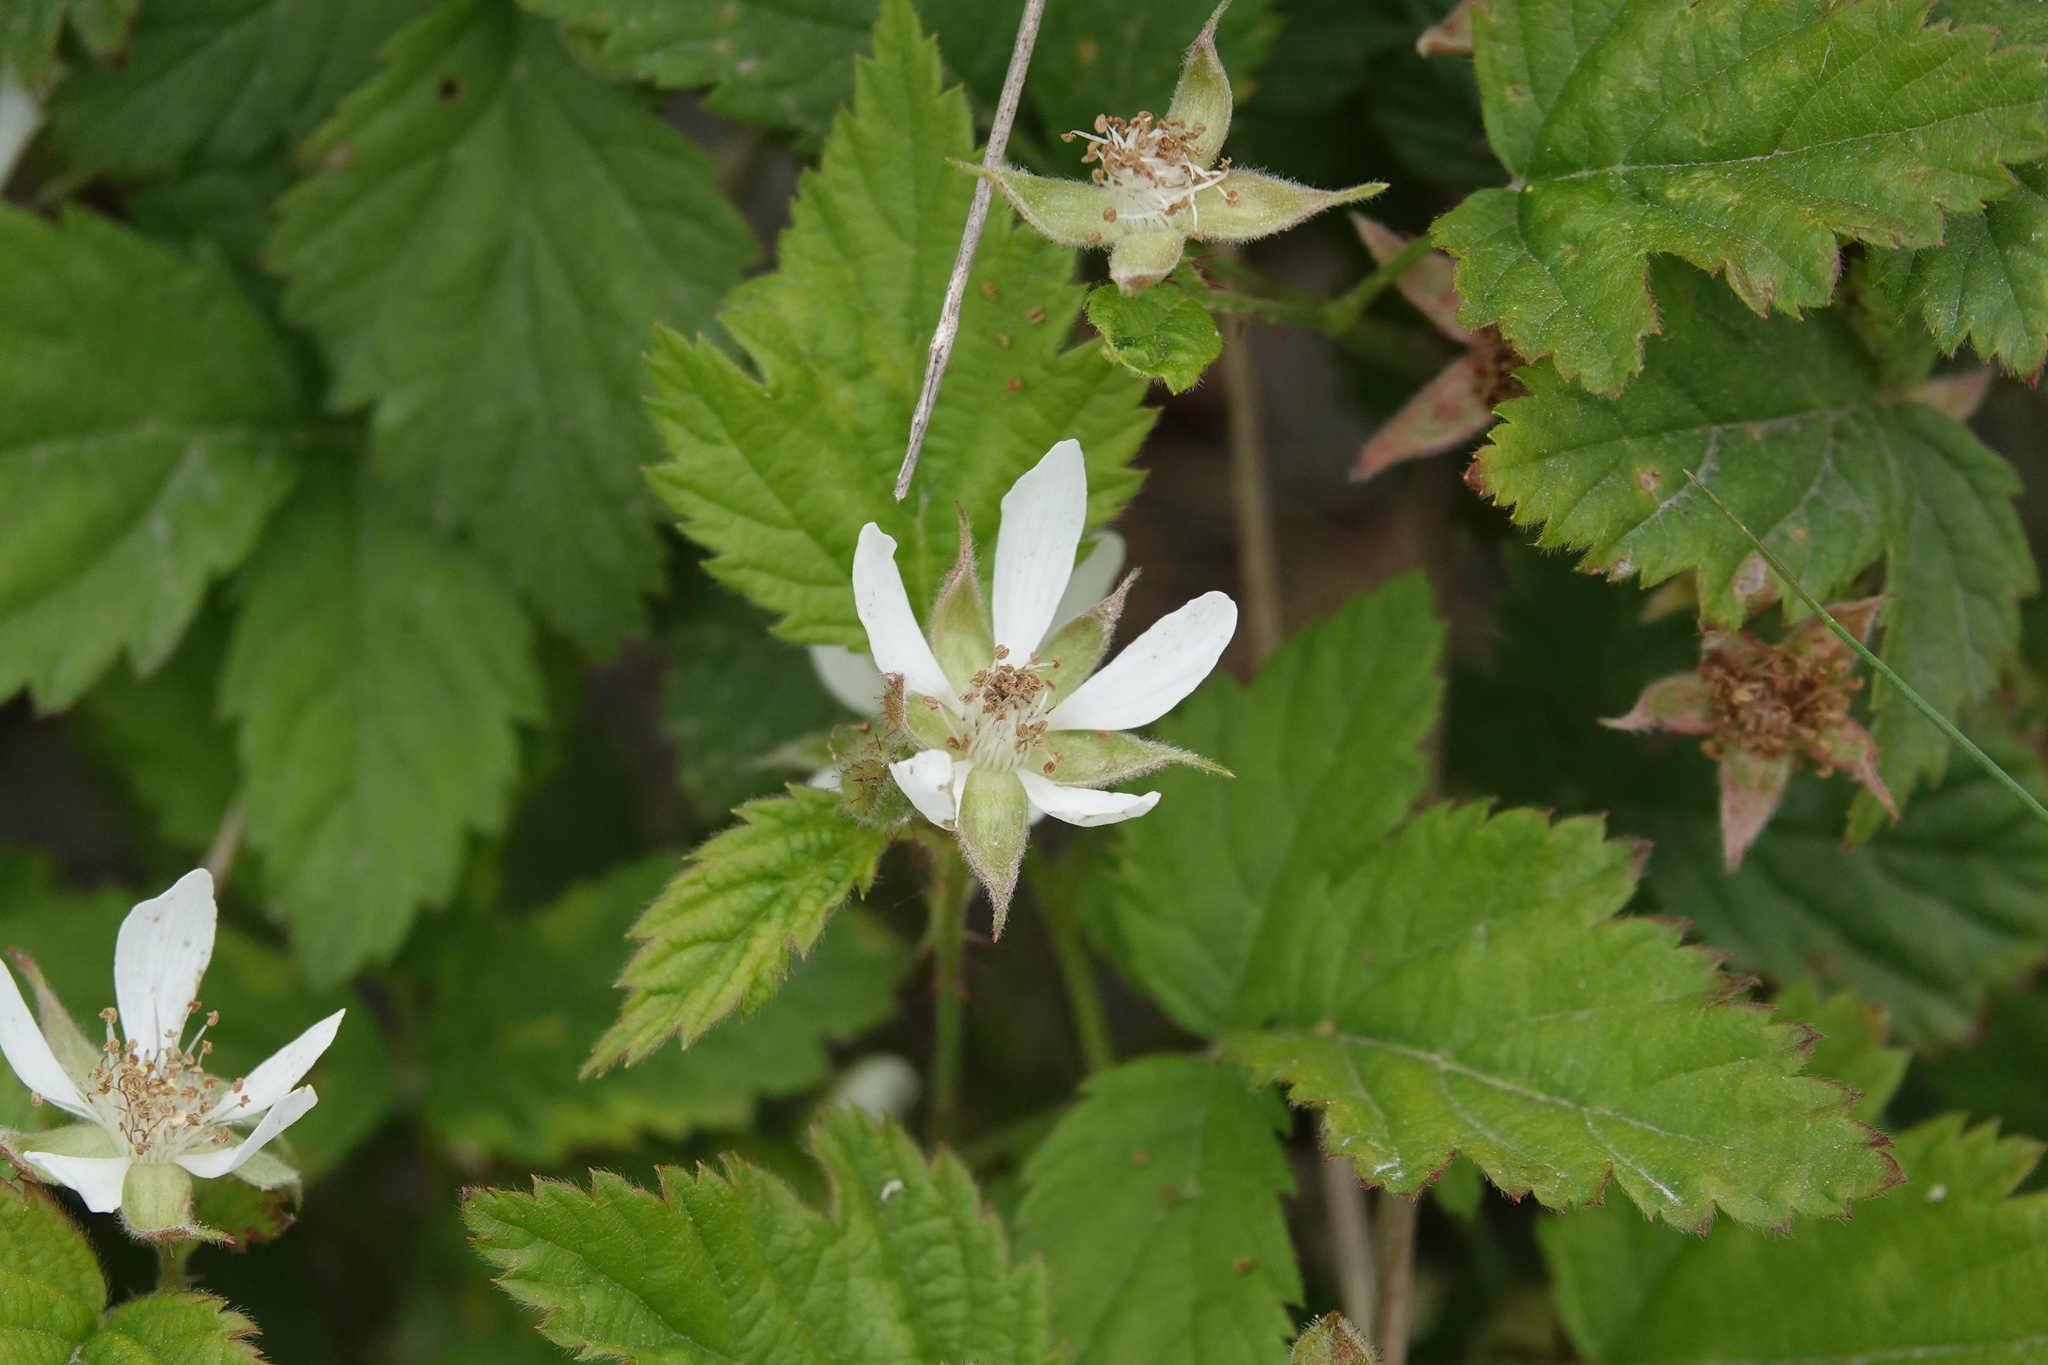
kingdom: Plantae
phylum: Tracheophyta
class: Magnoliopsida
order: Rosales
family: Rosaceae
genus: Rubus
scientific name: Rubus ursinus
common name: Pacific blackberry
